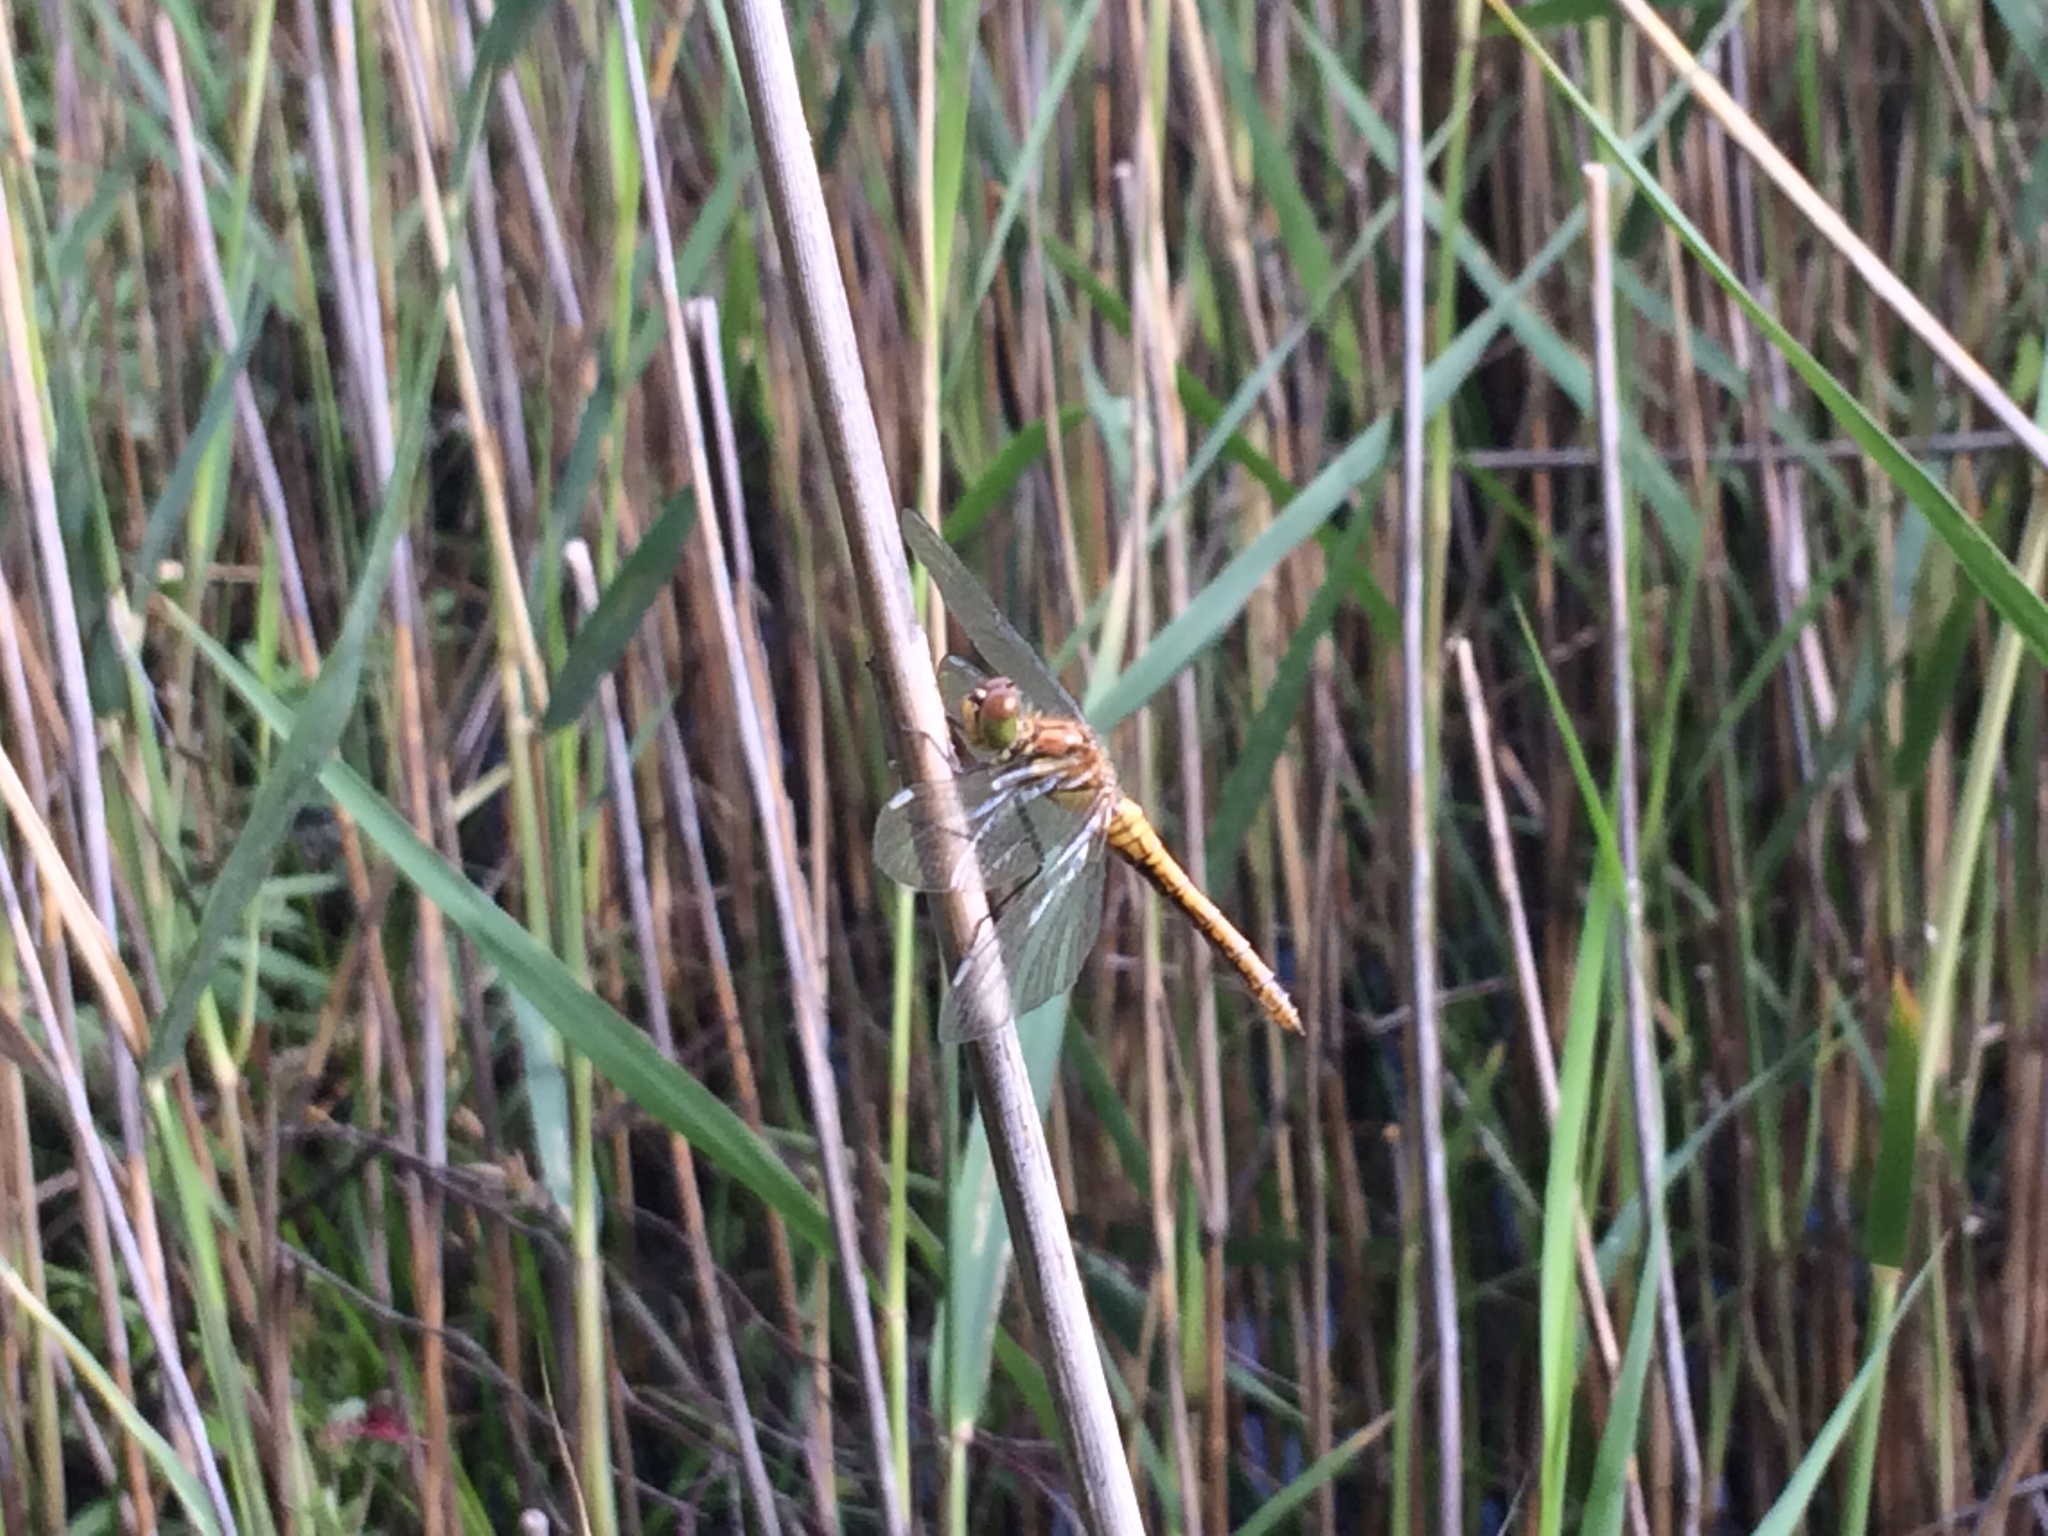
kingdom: Animalia
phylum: Arthropoda
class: Insecta
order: Odonata
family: Libellulidae
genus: Sympetrum
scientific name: Sympetrum sanguineum
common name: Ruddy darter
